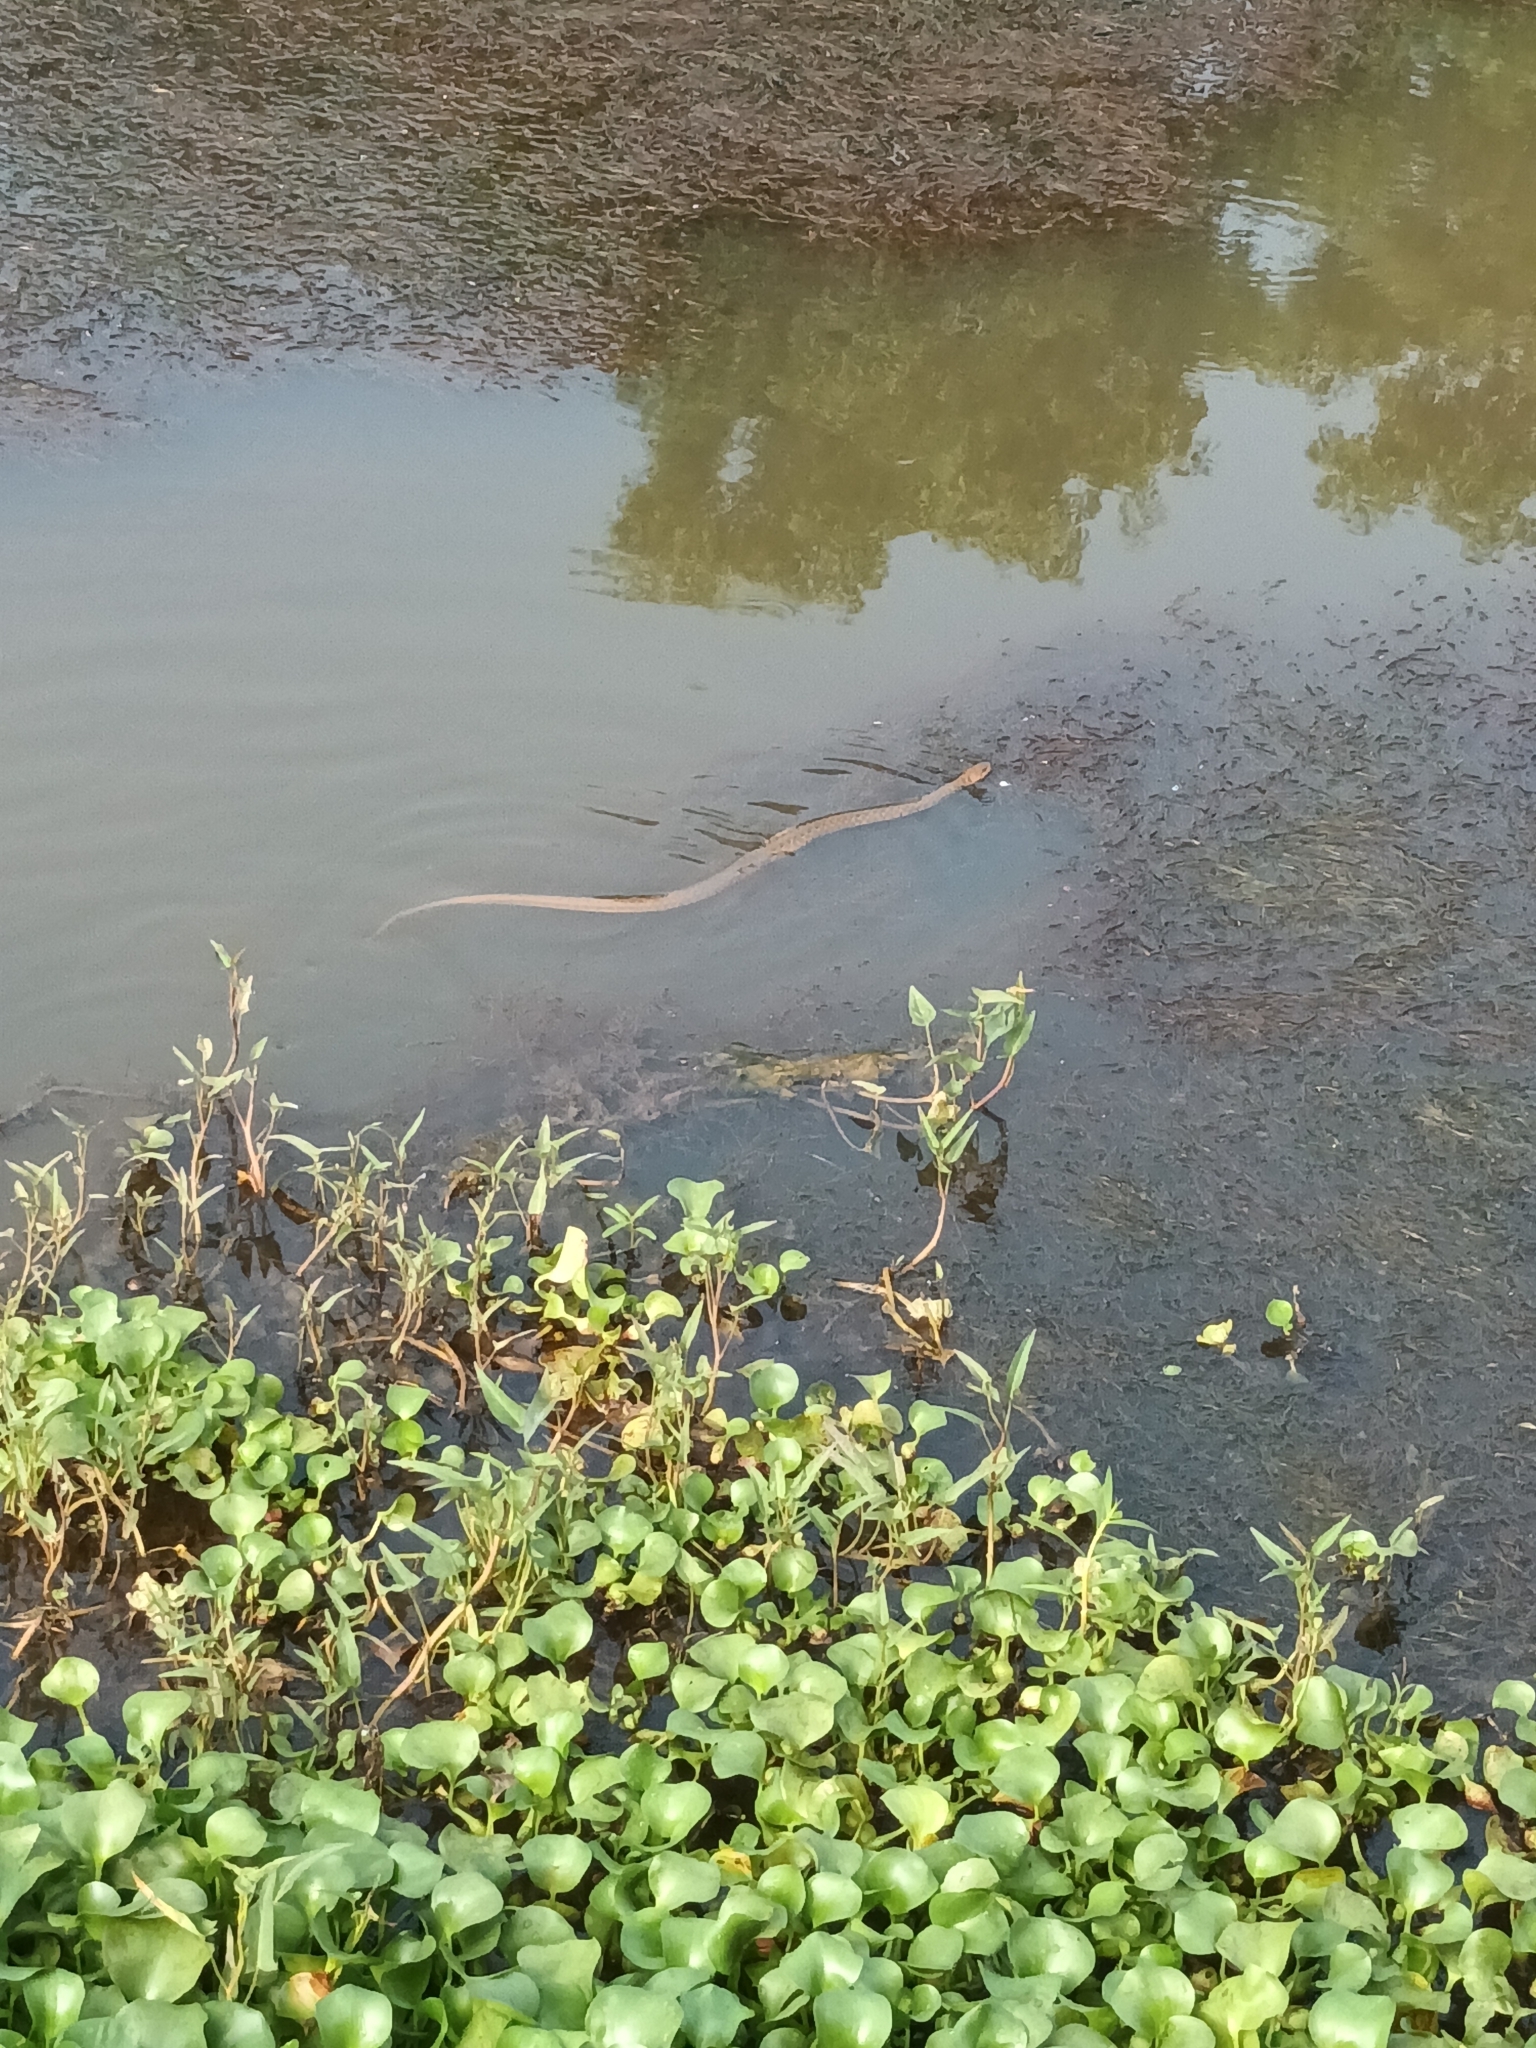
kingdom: Animalia
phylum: Chordata
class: Squamata
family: Colubridae
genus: Fowlea
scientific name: Fowlea piscator
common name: Asiatic water snake
